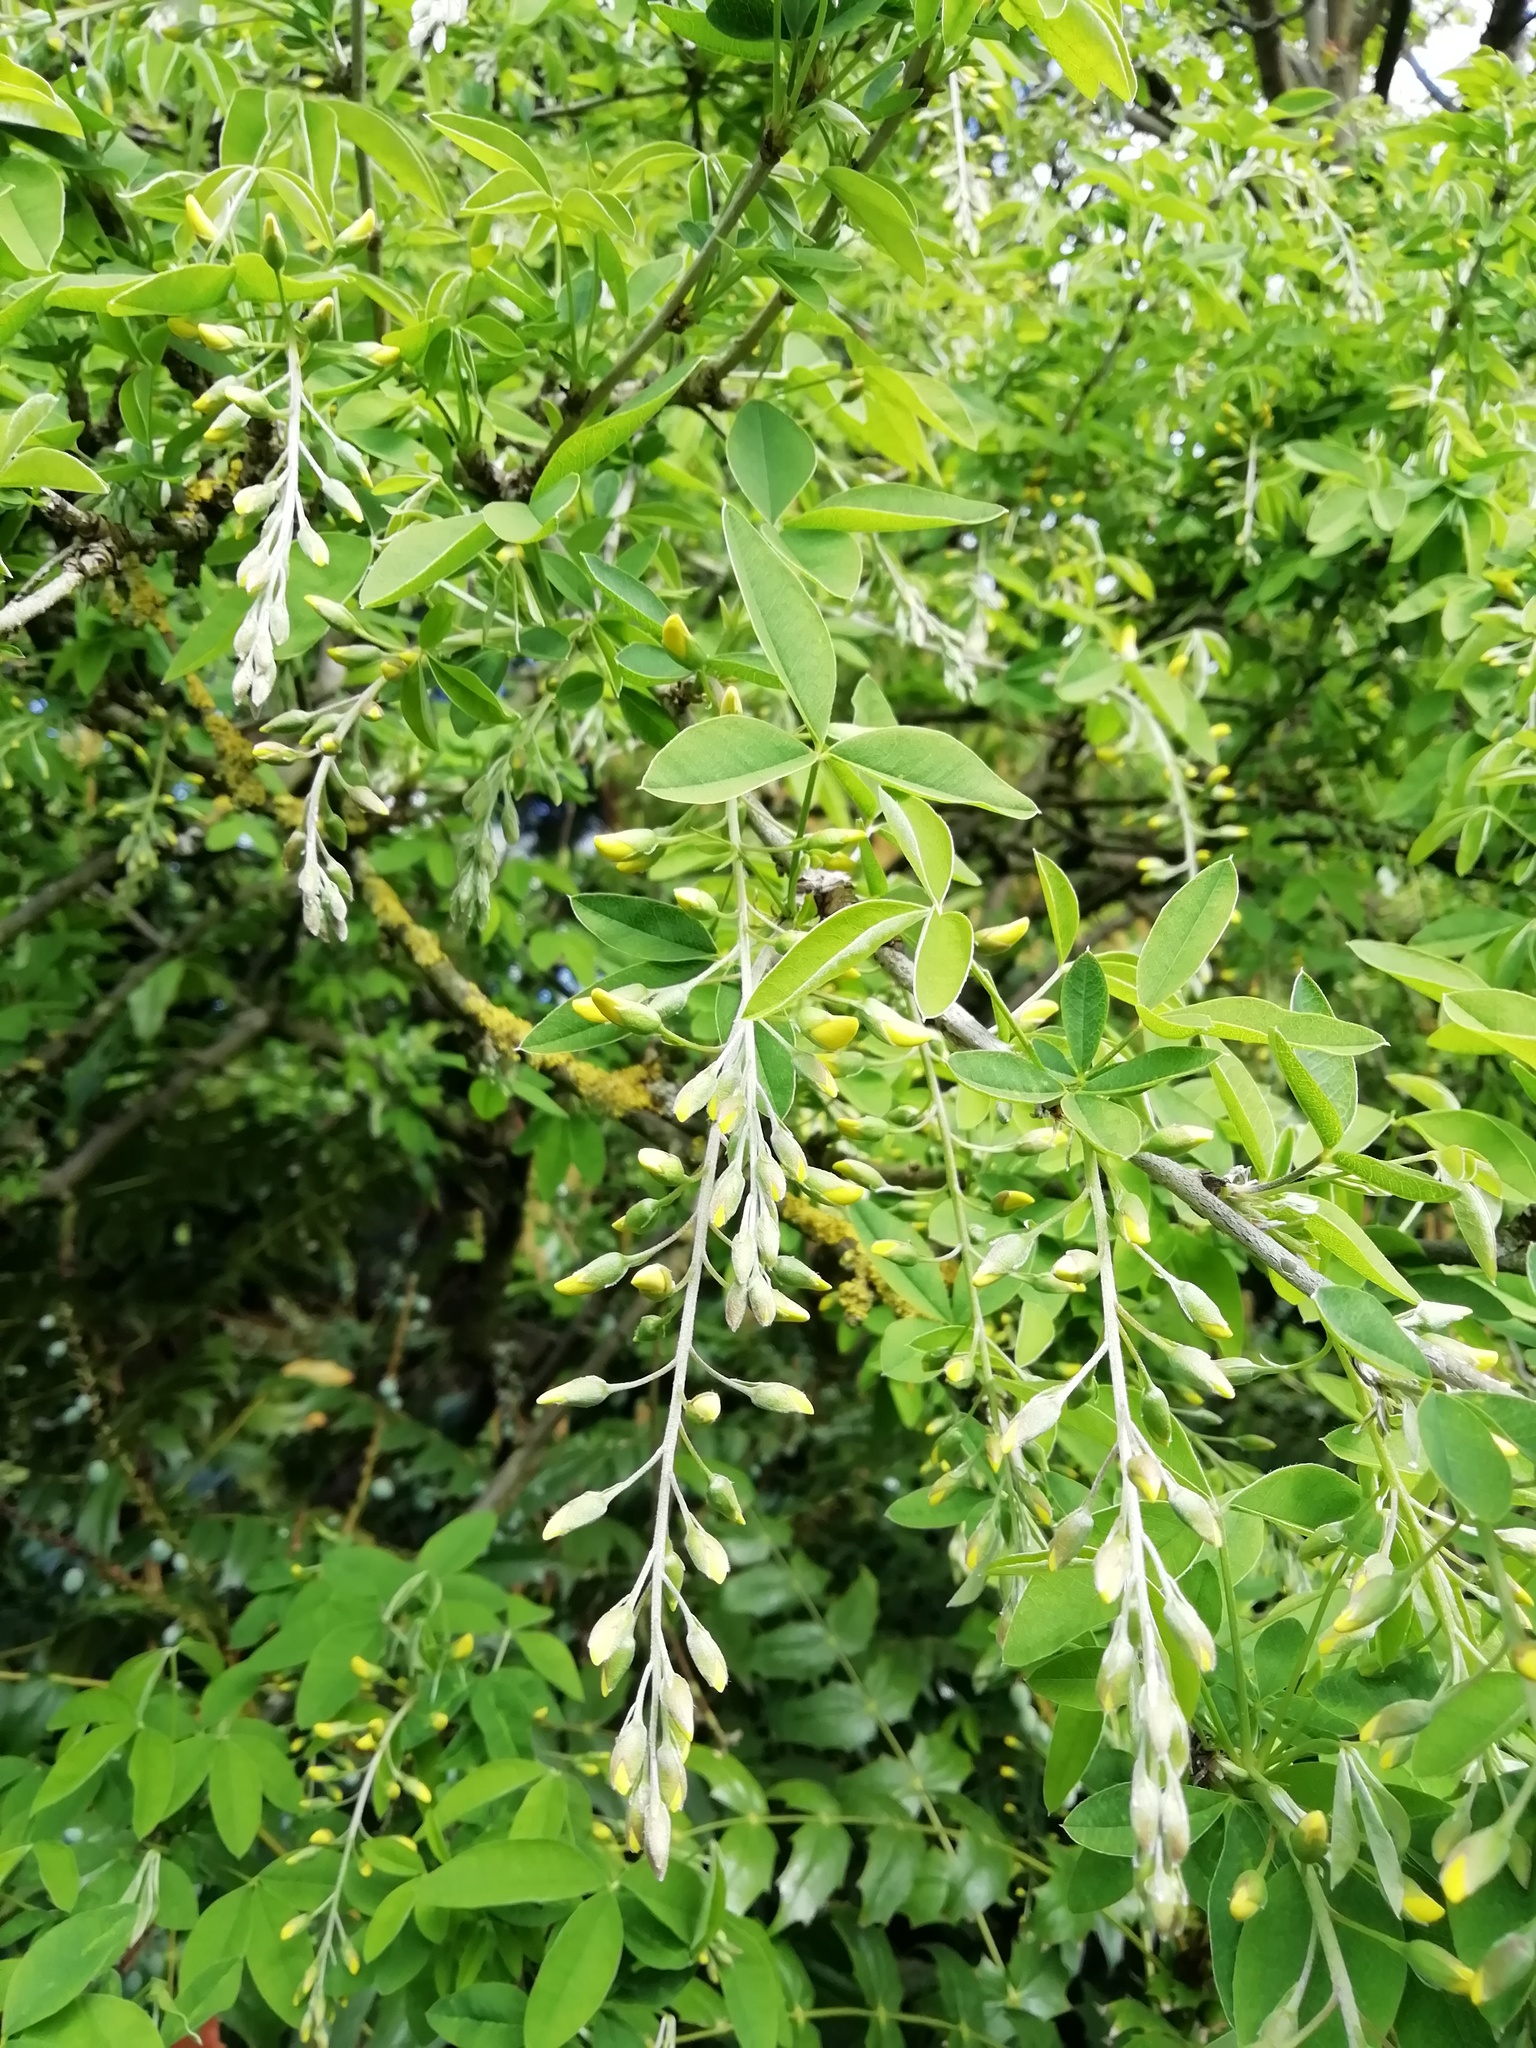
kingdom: Plantae
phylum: Tracheophyta
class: Magnoliopsida
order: Fabales
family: Fabaceae
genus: Laburnum
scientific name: Laburnum anagyroides
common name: Laburnum
